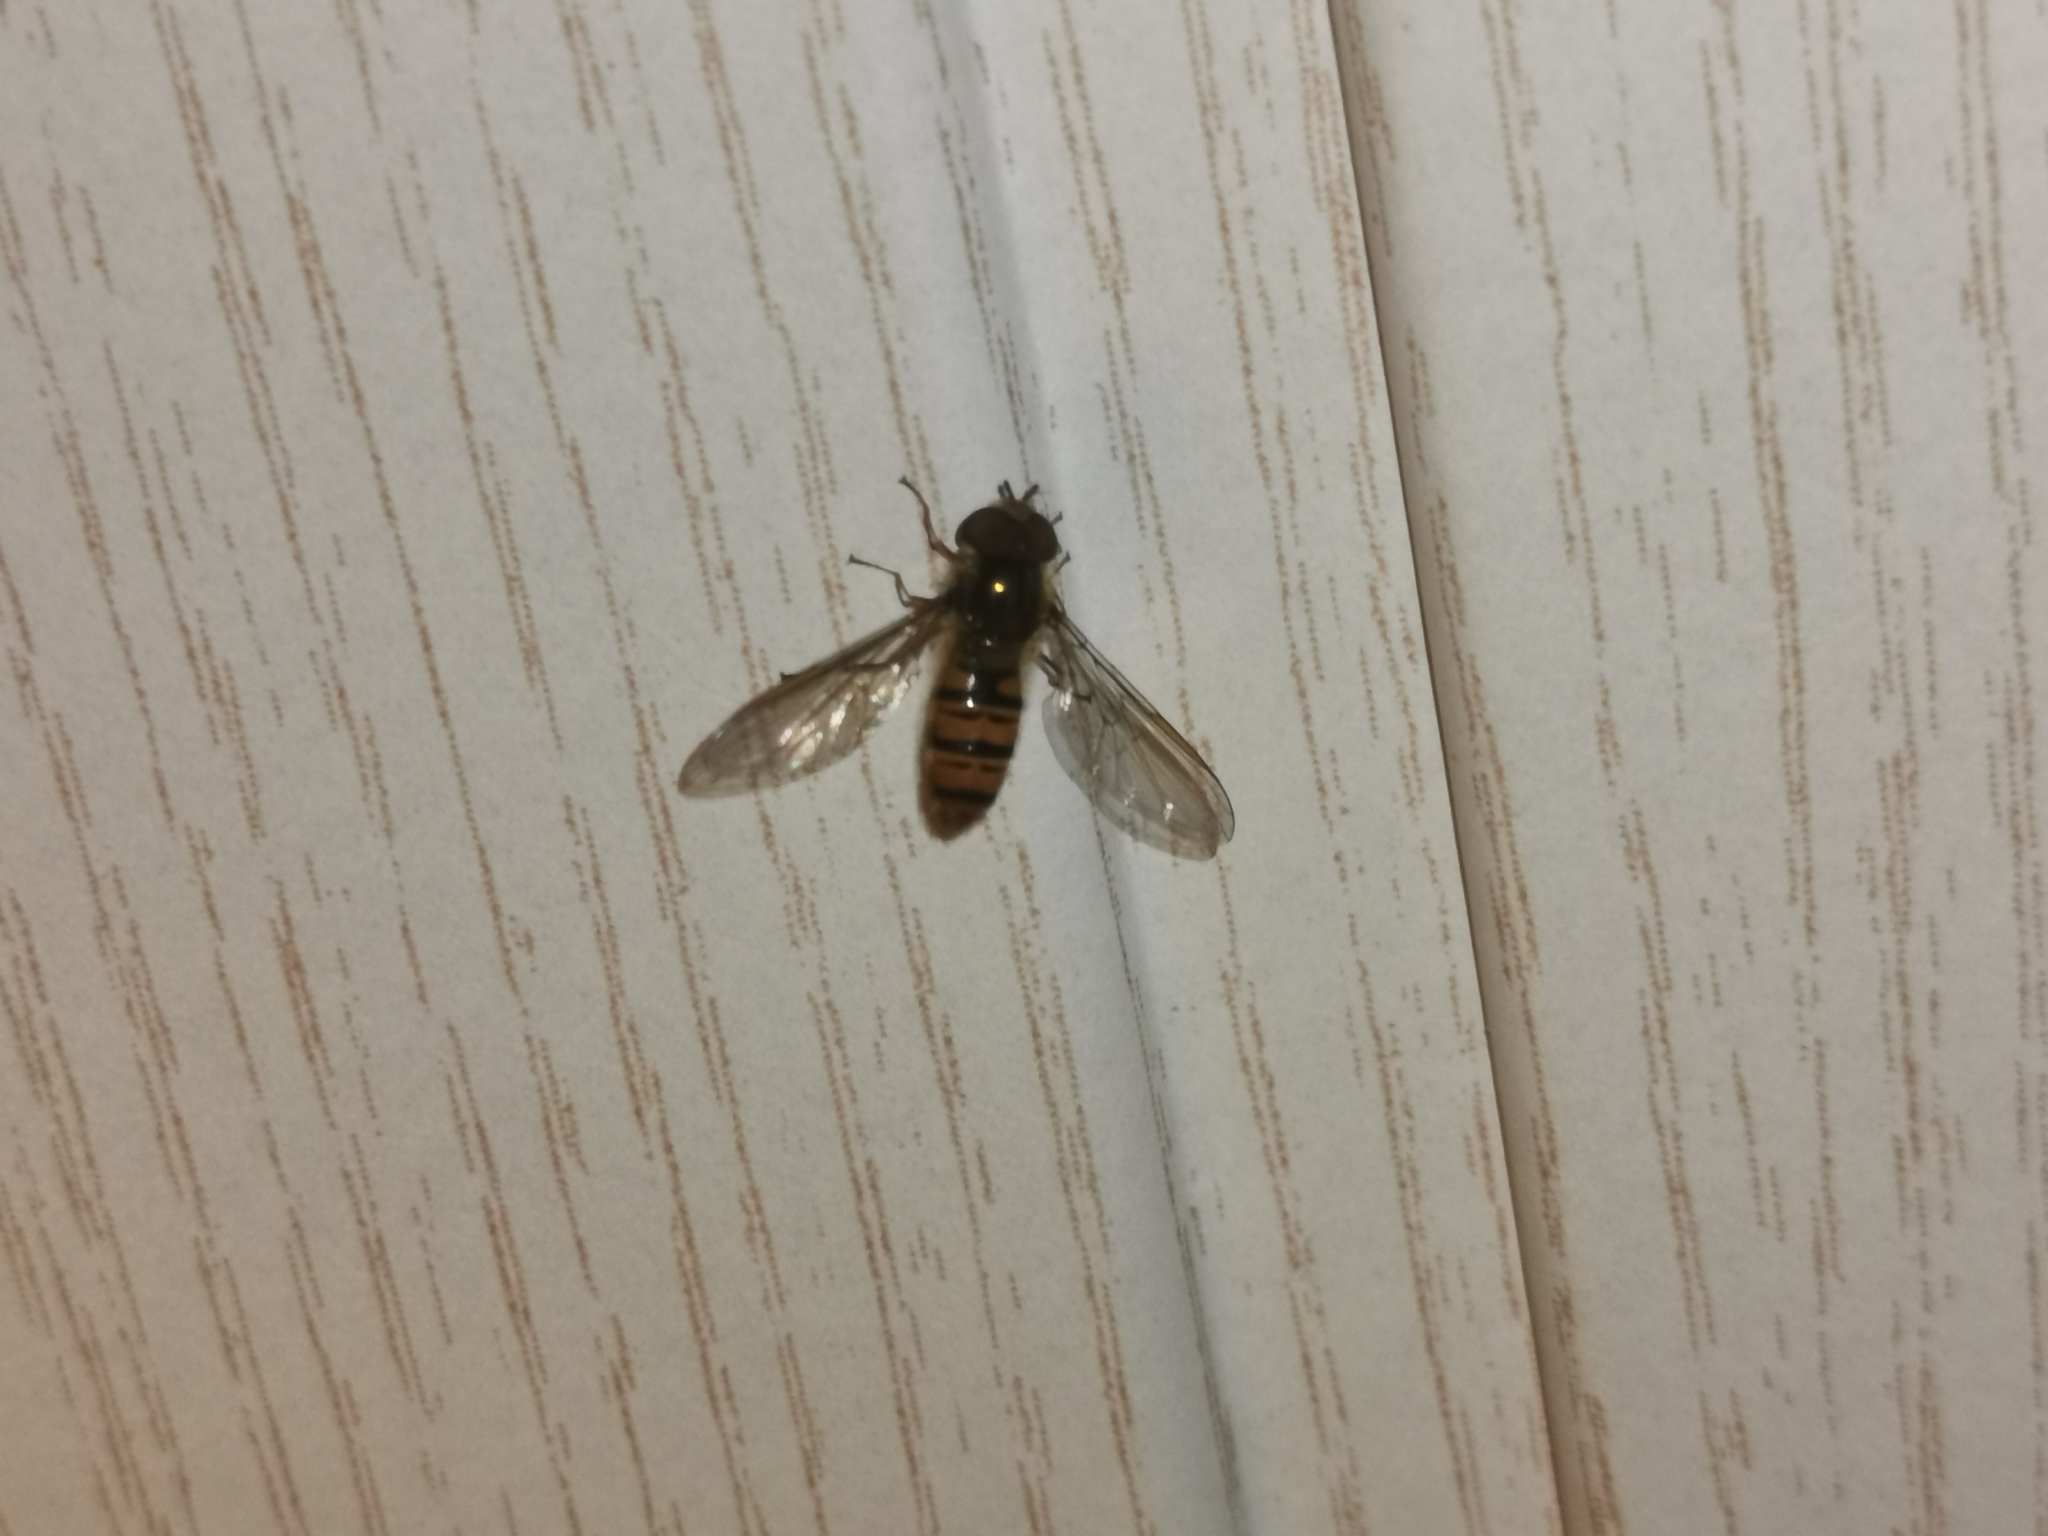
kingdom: Animalia
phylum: Arthropoda
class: Insecta
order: Diptera
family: Syrphidae
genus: Episyrphus
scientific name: Episyrphus balteatus
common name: Marmalade hoverfly
